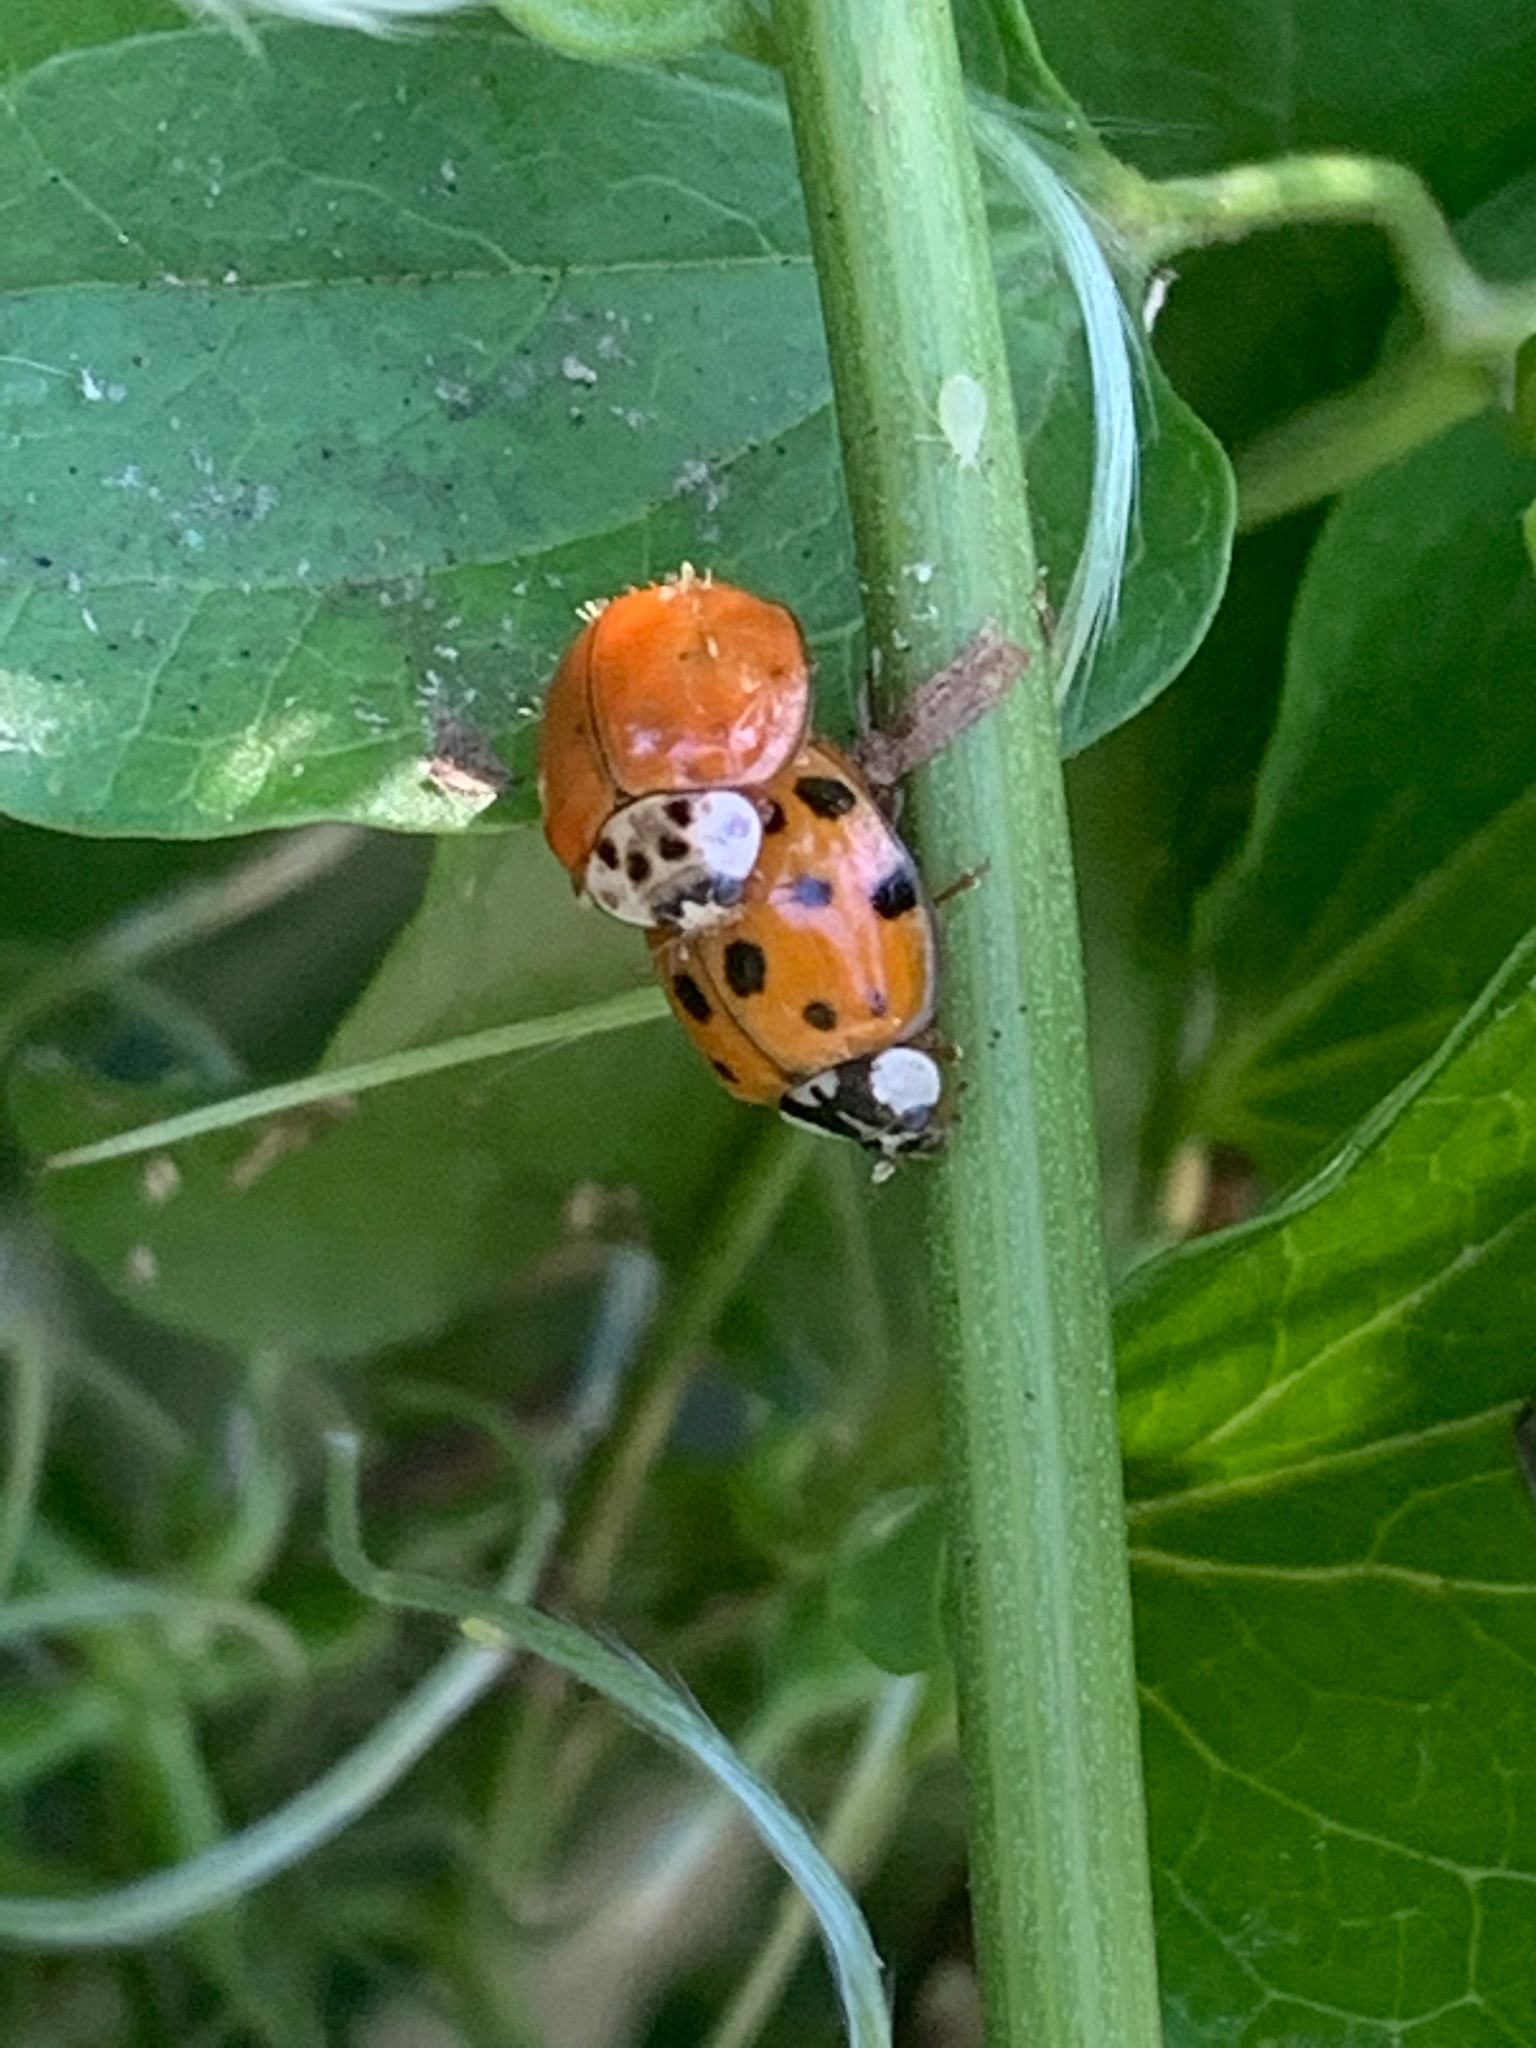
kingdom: Animalia
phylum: Arthropoda
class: Insecta
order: Coleoptera
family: Coccinellidae
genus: Harmonia
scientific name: Harmonia axyridis
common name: Harlequin ladybird
